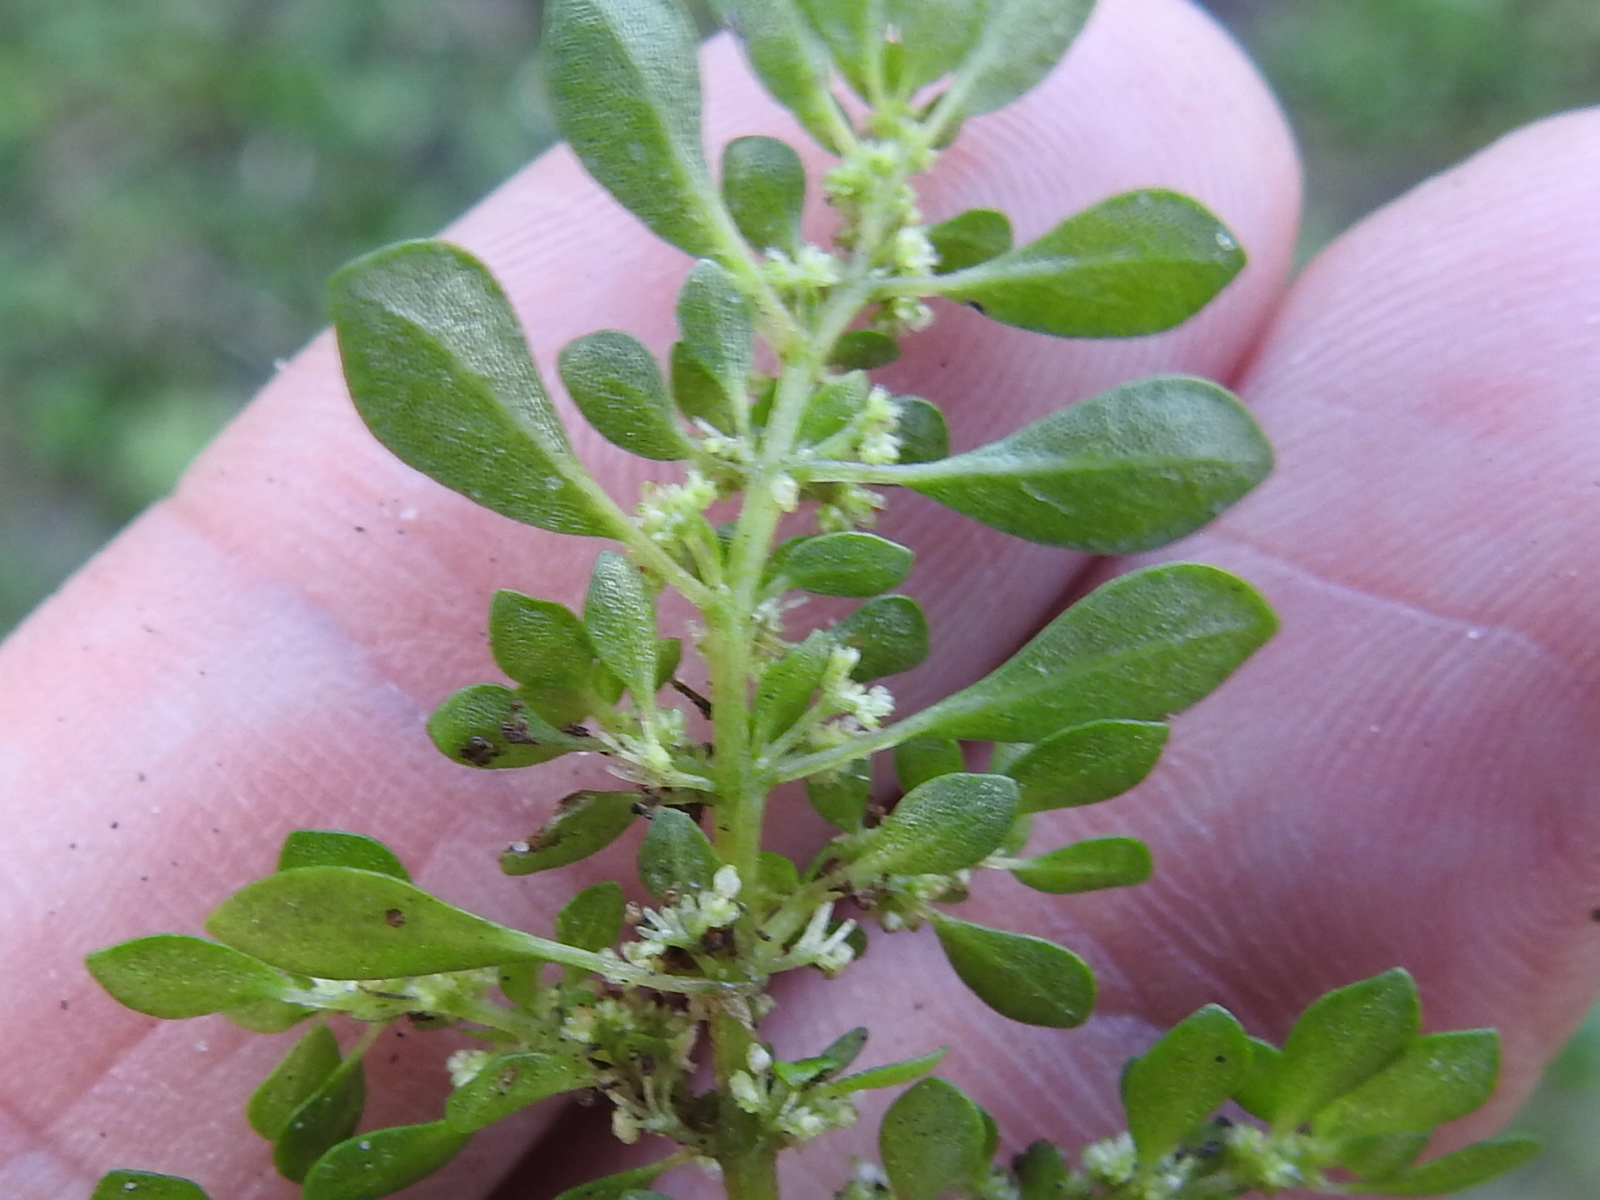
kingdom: Plantae
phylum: Tracheophyta
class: Magnoliopsida
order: Rosales
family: Urticaceae
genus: Pilea
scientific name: Pilea microphylla
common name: Artillery-plant
